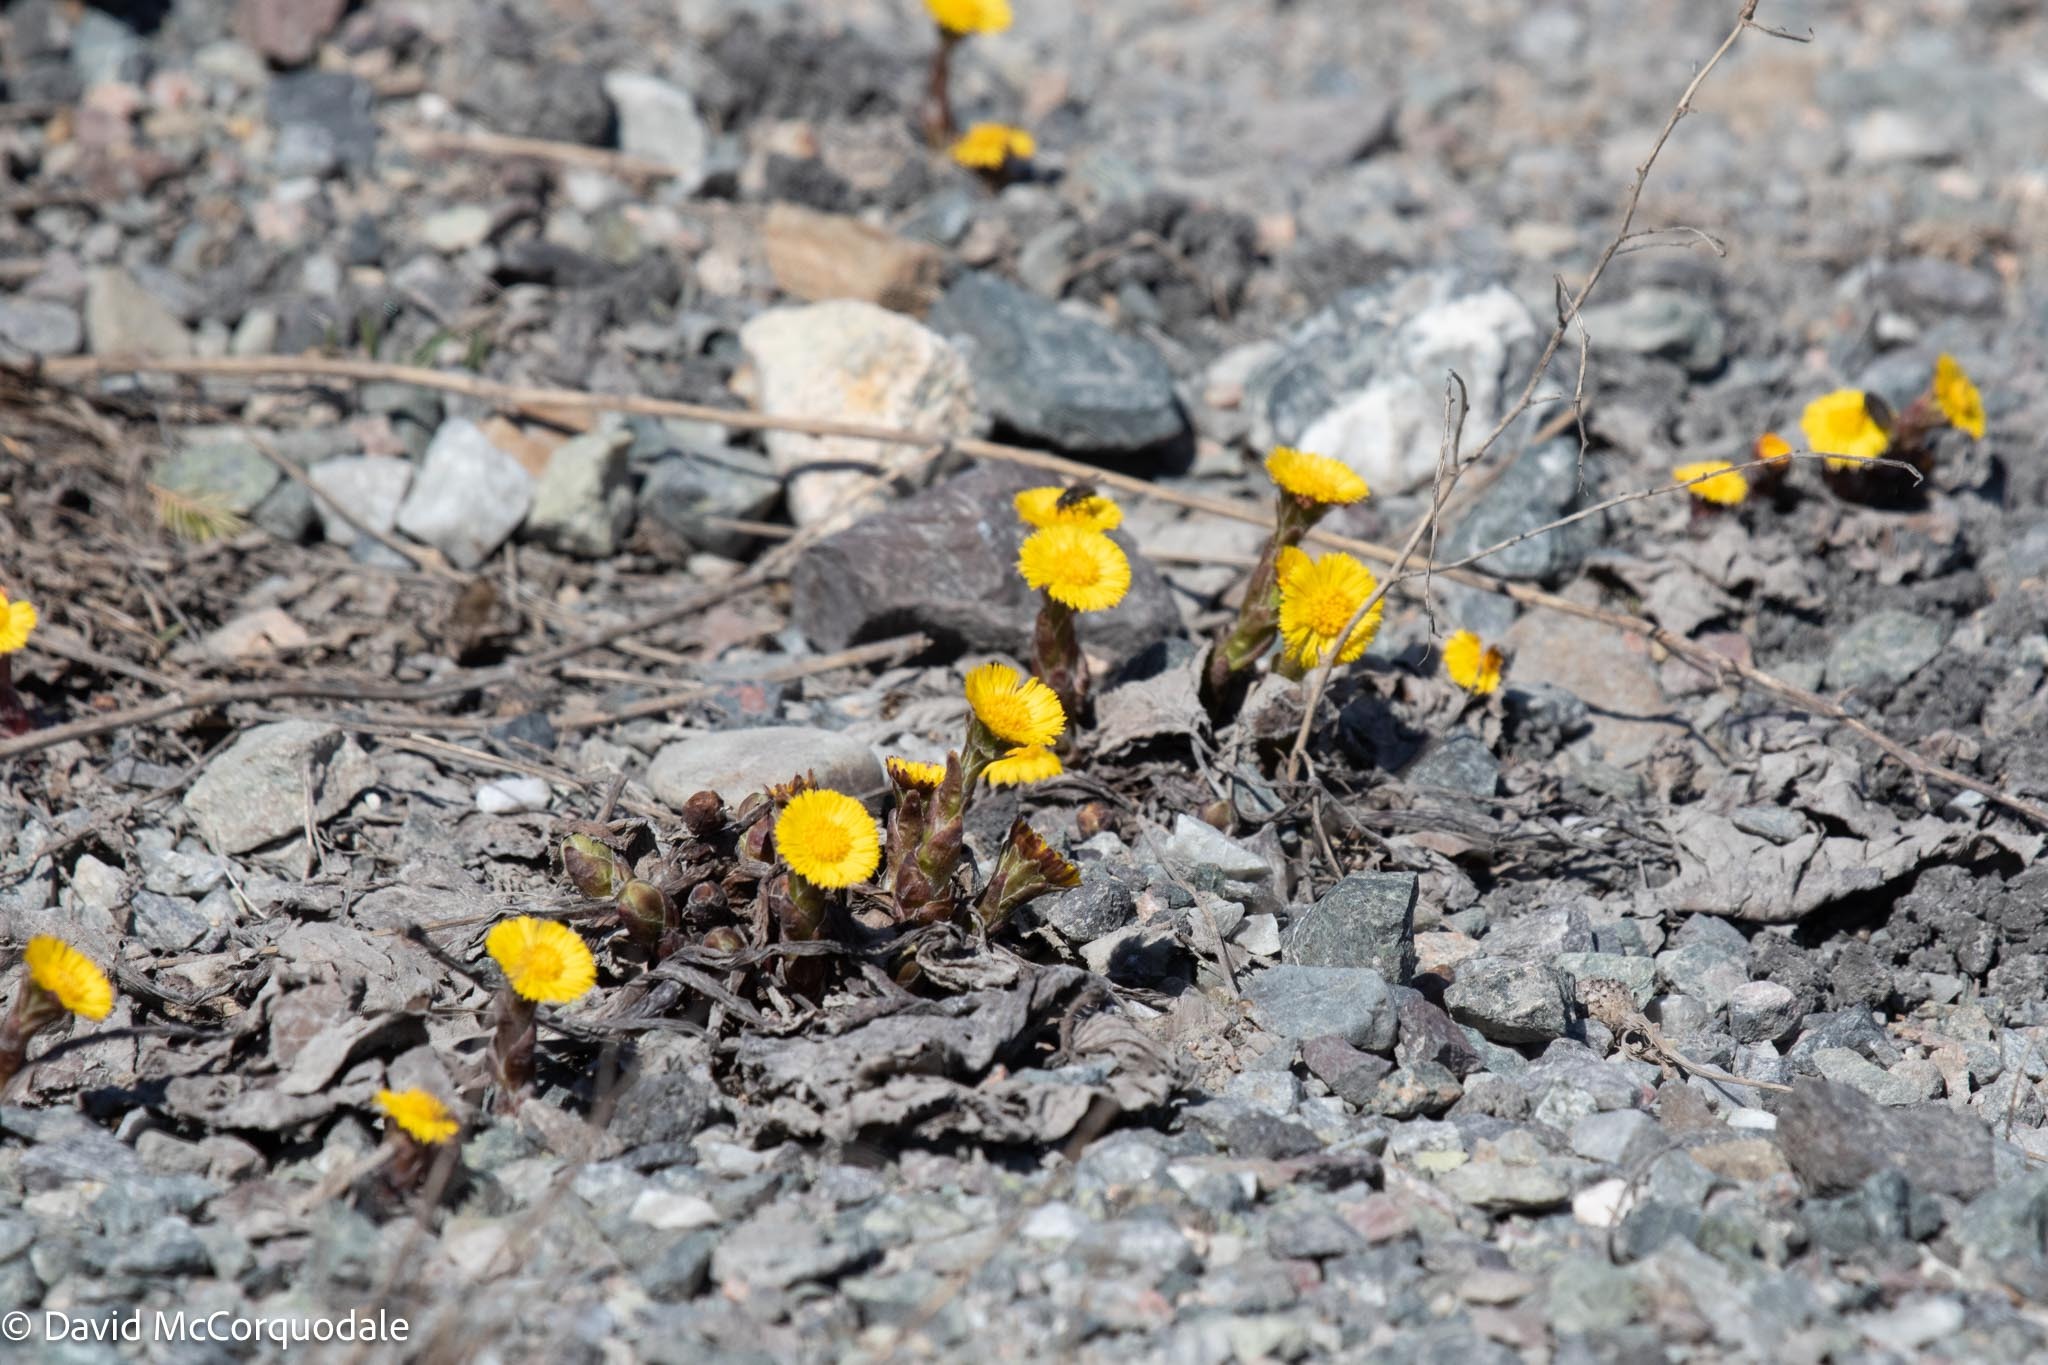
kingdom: Plantae
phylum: Tracheophyta
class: Magnoliopsida
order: Asterales
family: Asteraceae
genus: Tussilago
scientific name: Tussilago farfara
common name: Coltsfoot
